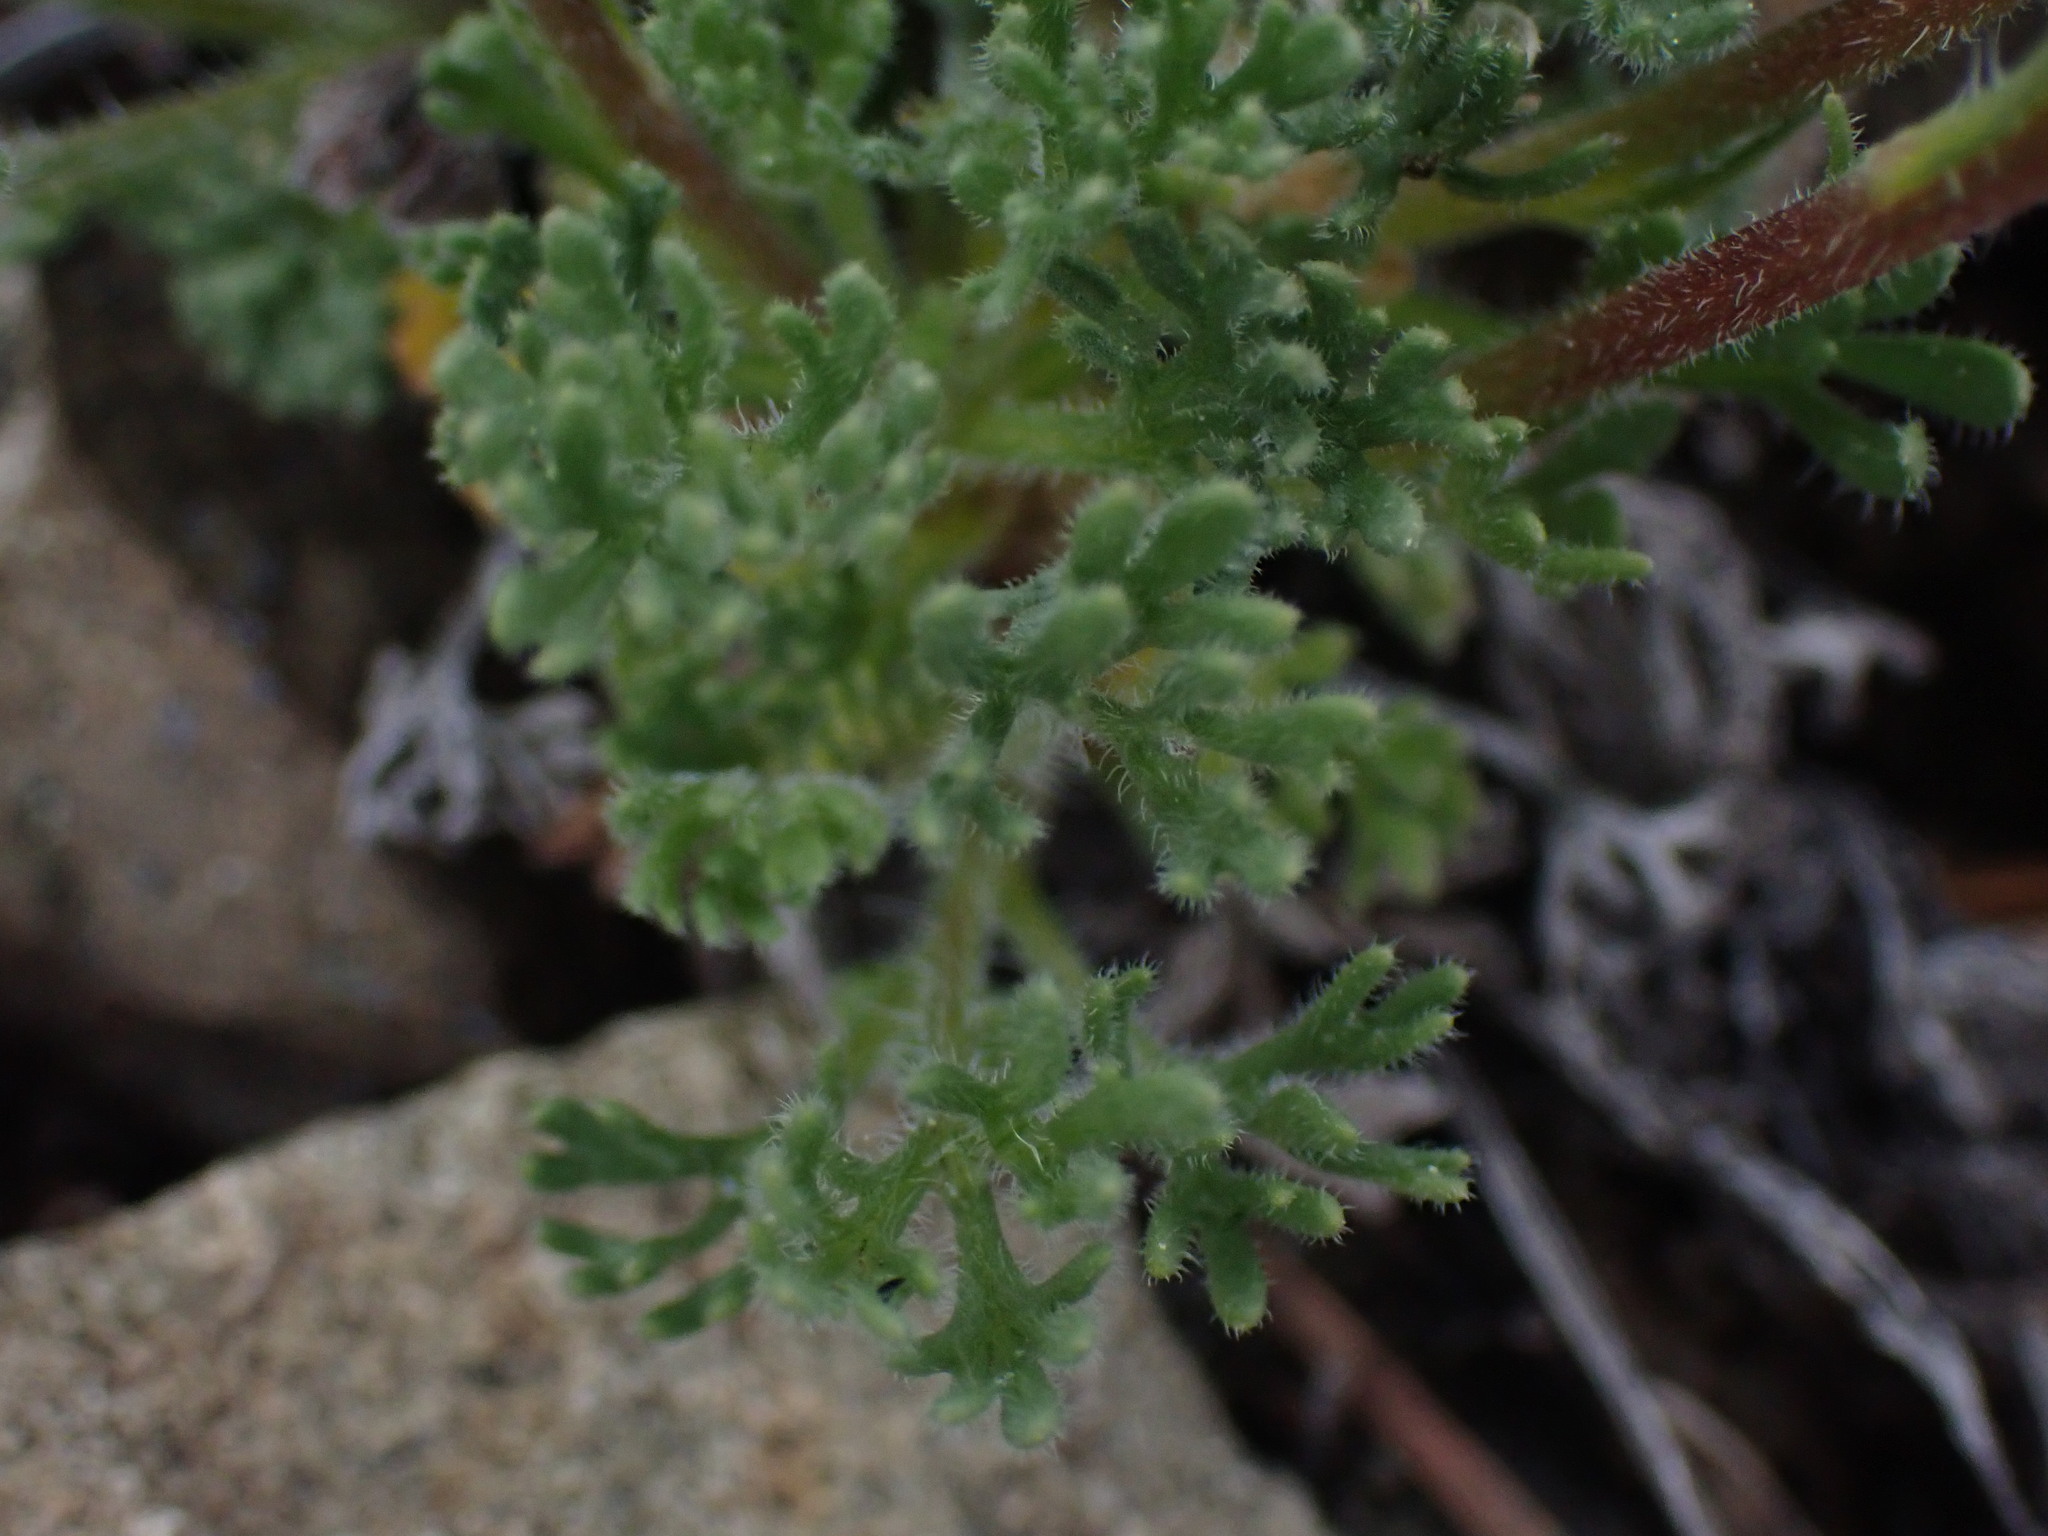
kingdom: Plantae
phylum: Tracheophyta
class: Magnoliopsida
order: Asterales
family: Asteraceae
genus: Erigeron
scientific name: Erigeron compositus
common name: Dwarf mountain fleabane
